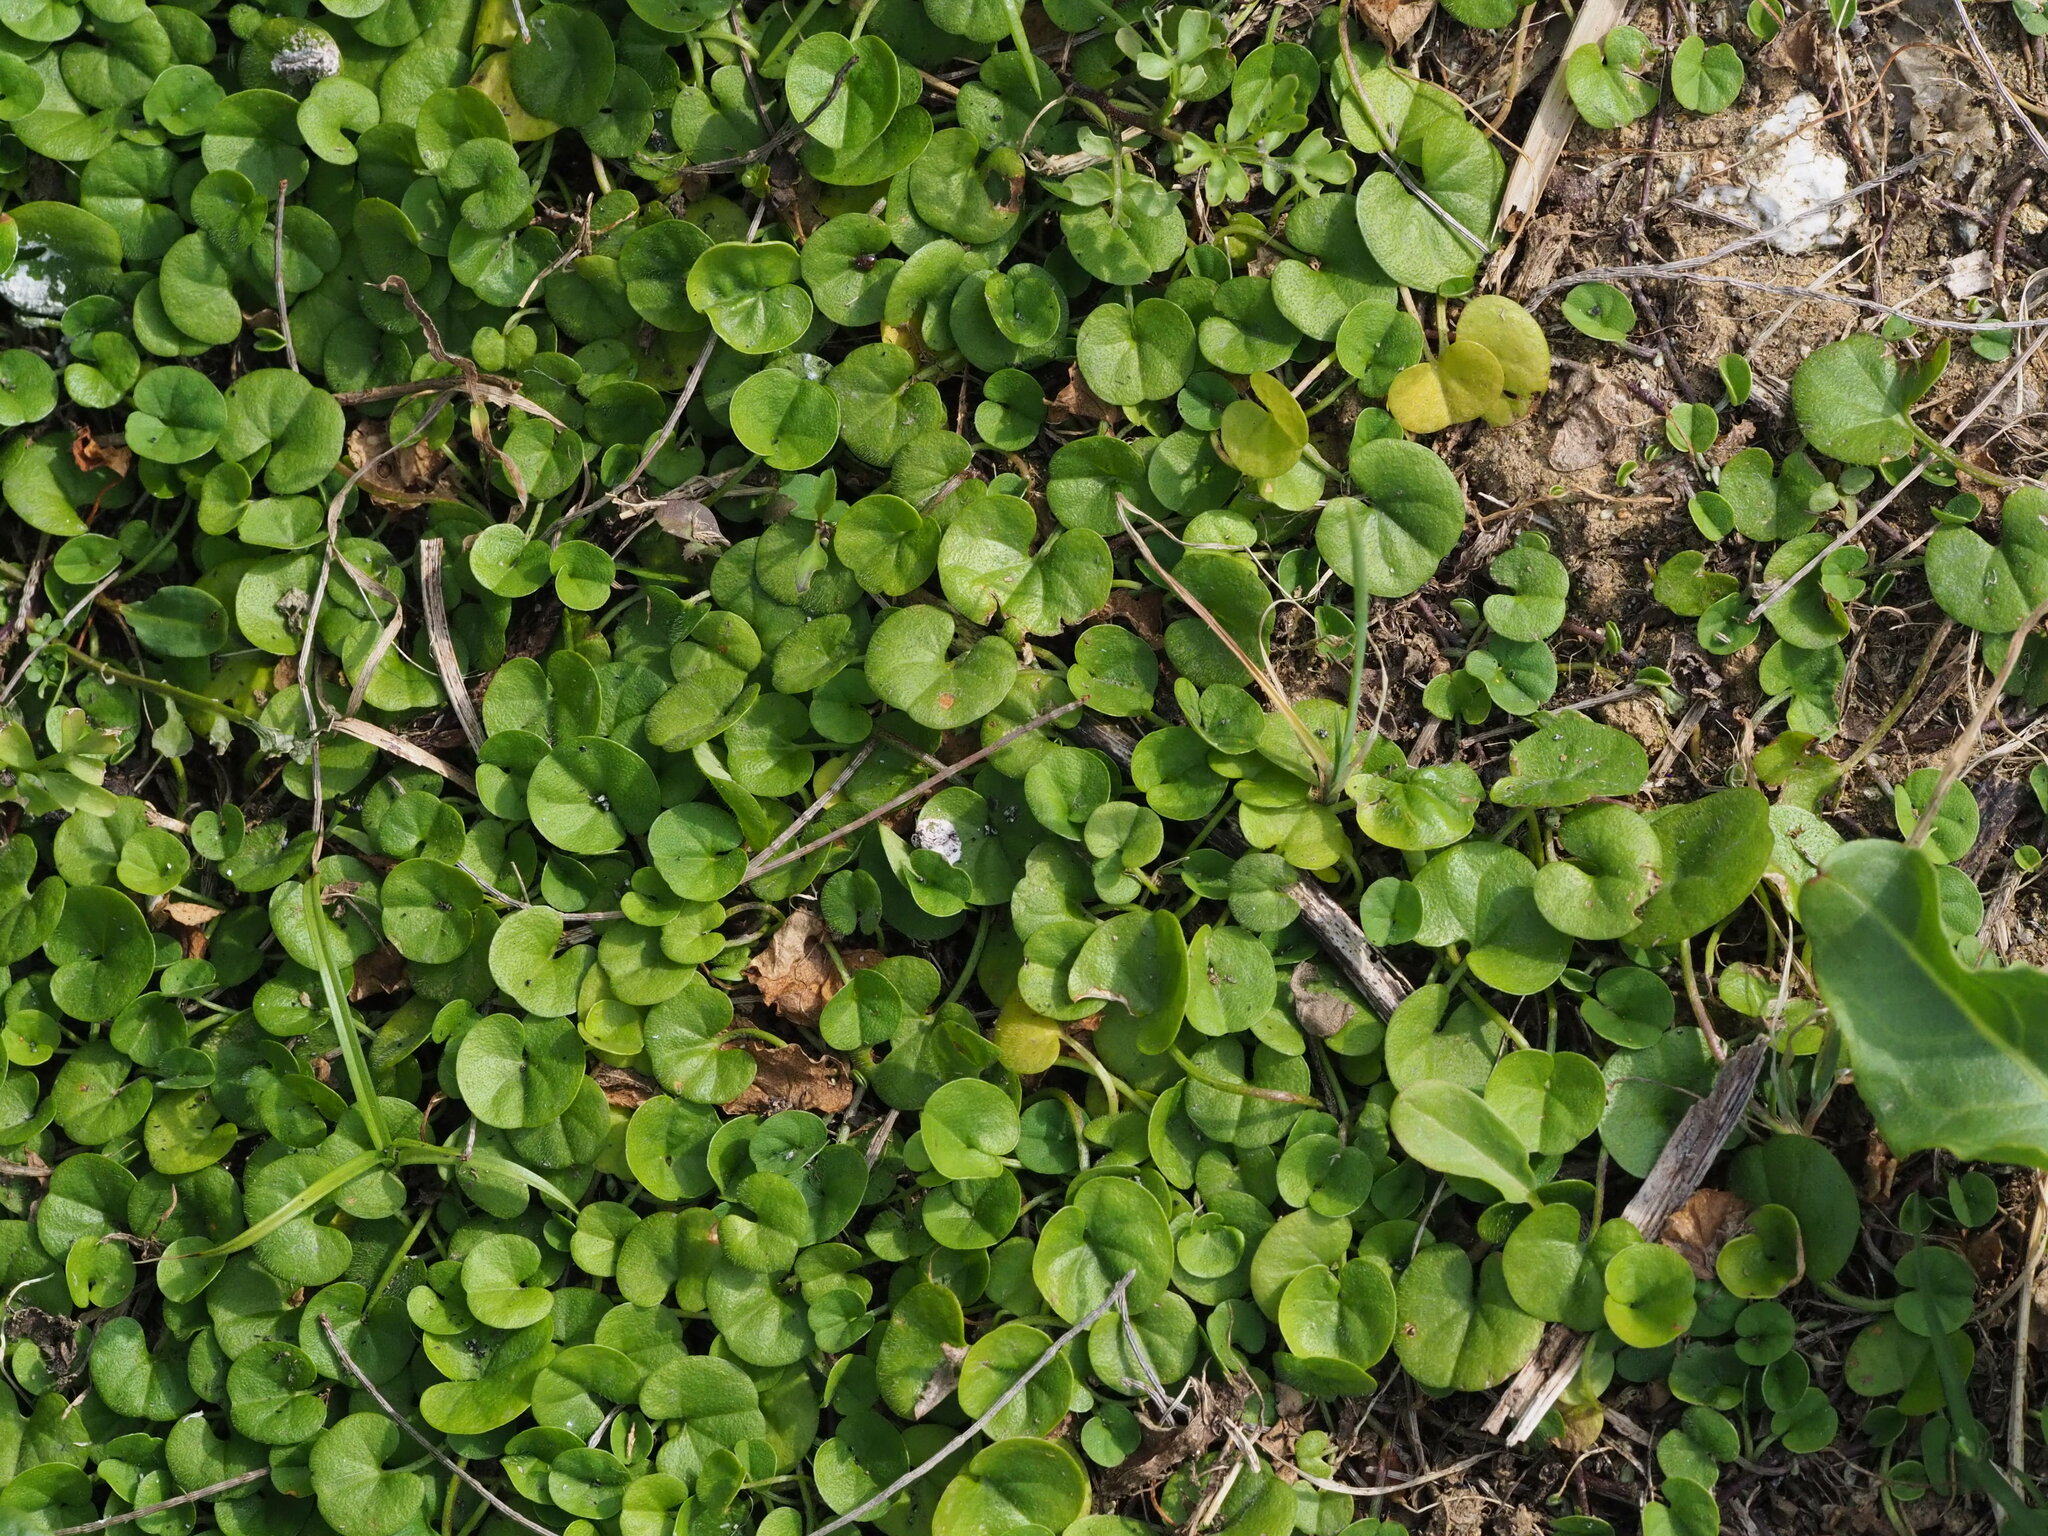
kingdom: Plantae
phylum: Tracheophyta
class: Magnoliopsida
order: Solanales
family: Convolvulaceae
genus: Dichondra
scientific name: Dichondra micrantha
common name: Kidneyweed
